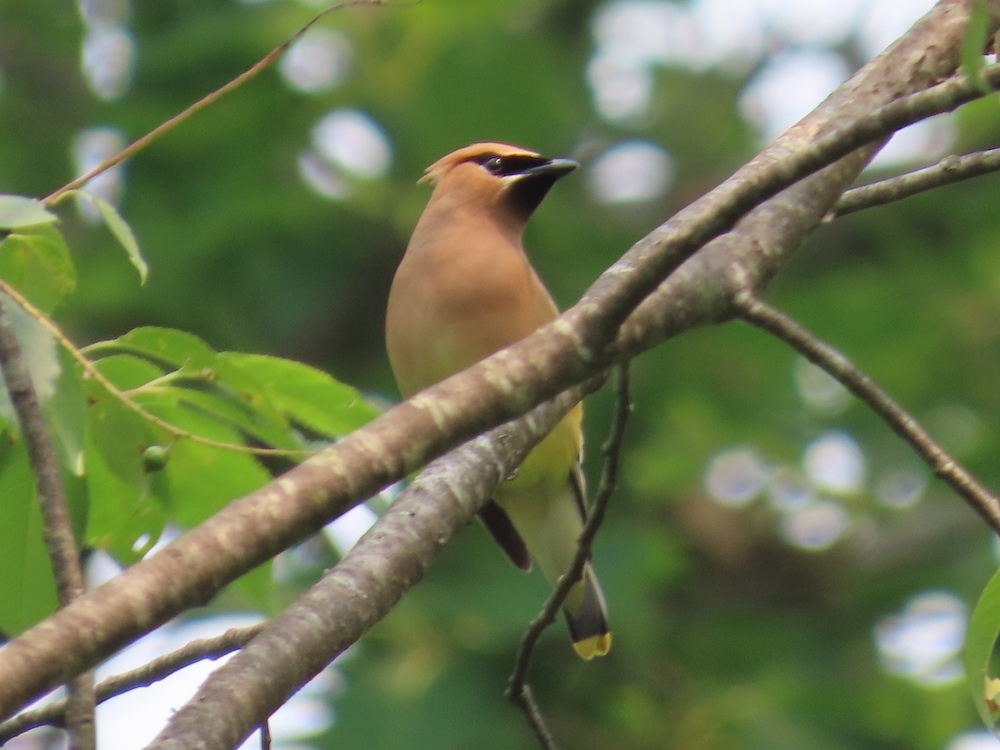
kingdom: Animalia
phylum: Chordata
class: Aves
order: Passeriformes
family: Bombycillidae
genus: Bombycilla
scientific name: Bombycilla cedrorum
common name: Cedar waxwing
